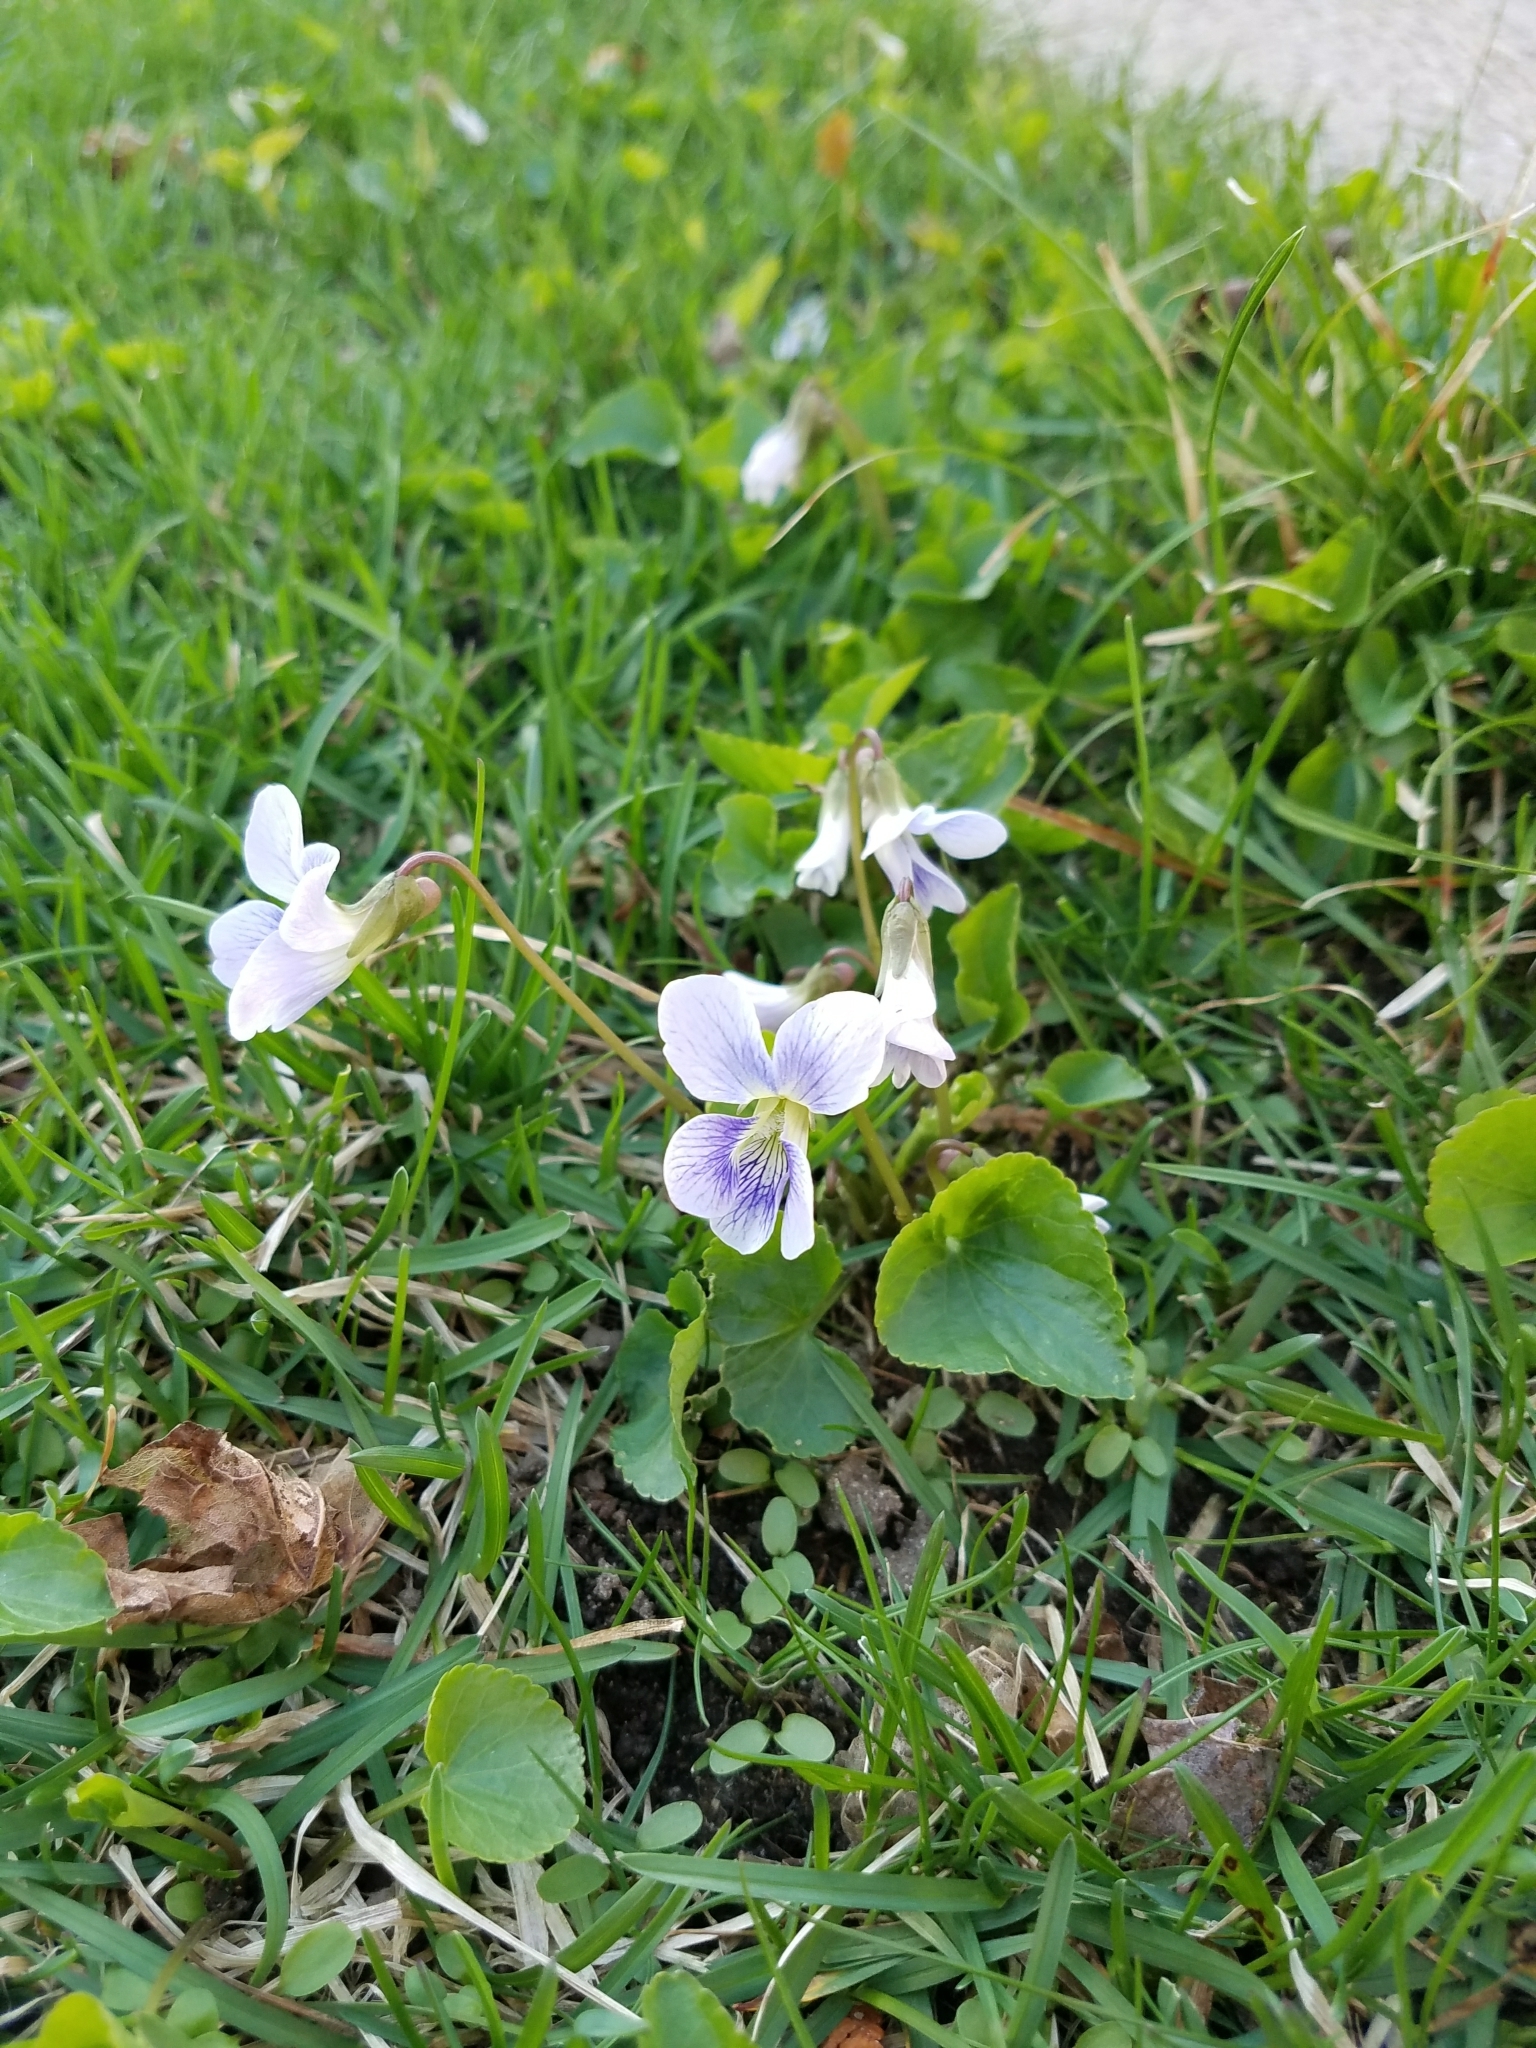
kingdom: Plantae
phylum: Tracheophyta
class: Magnoliopsida
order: Malpighiales
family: Violaceae
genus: Viola
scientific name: Viola sororia
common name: Dooryard violet
